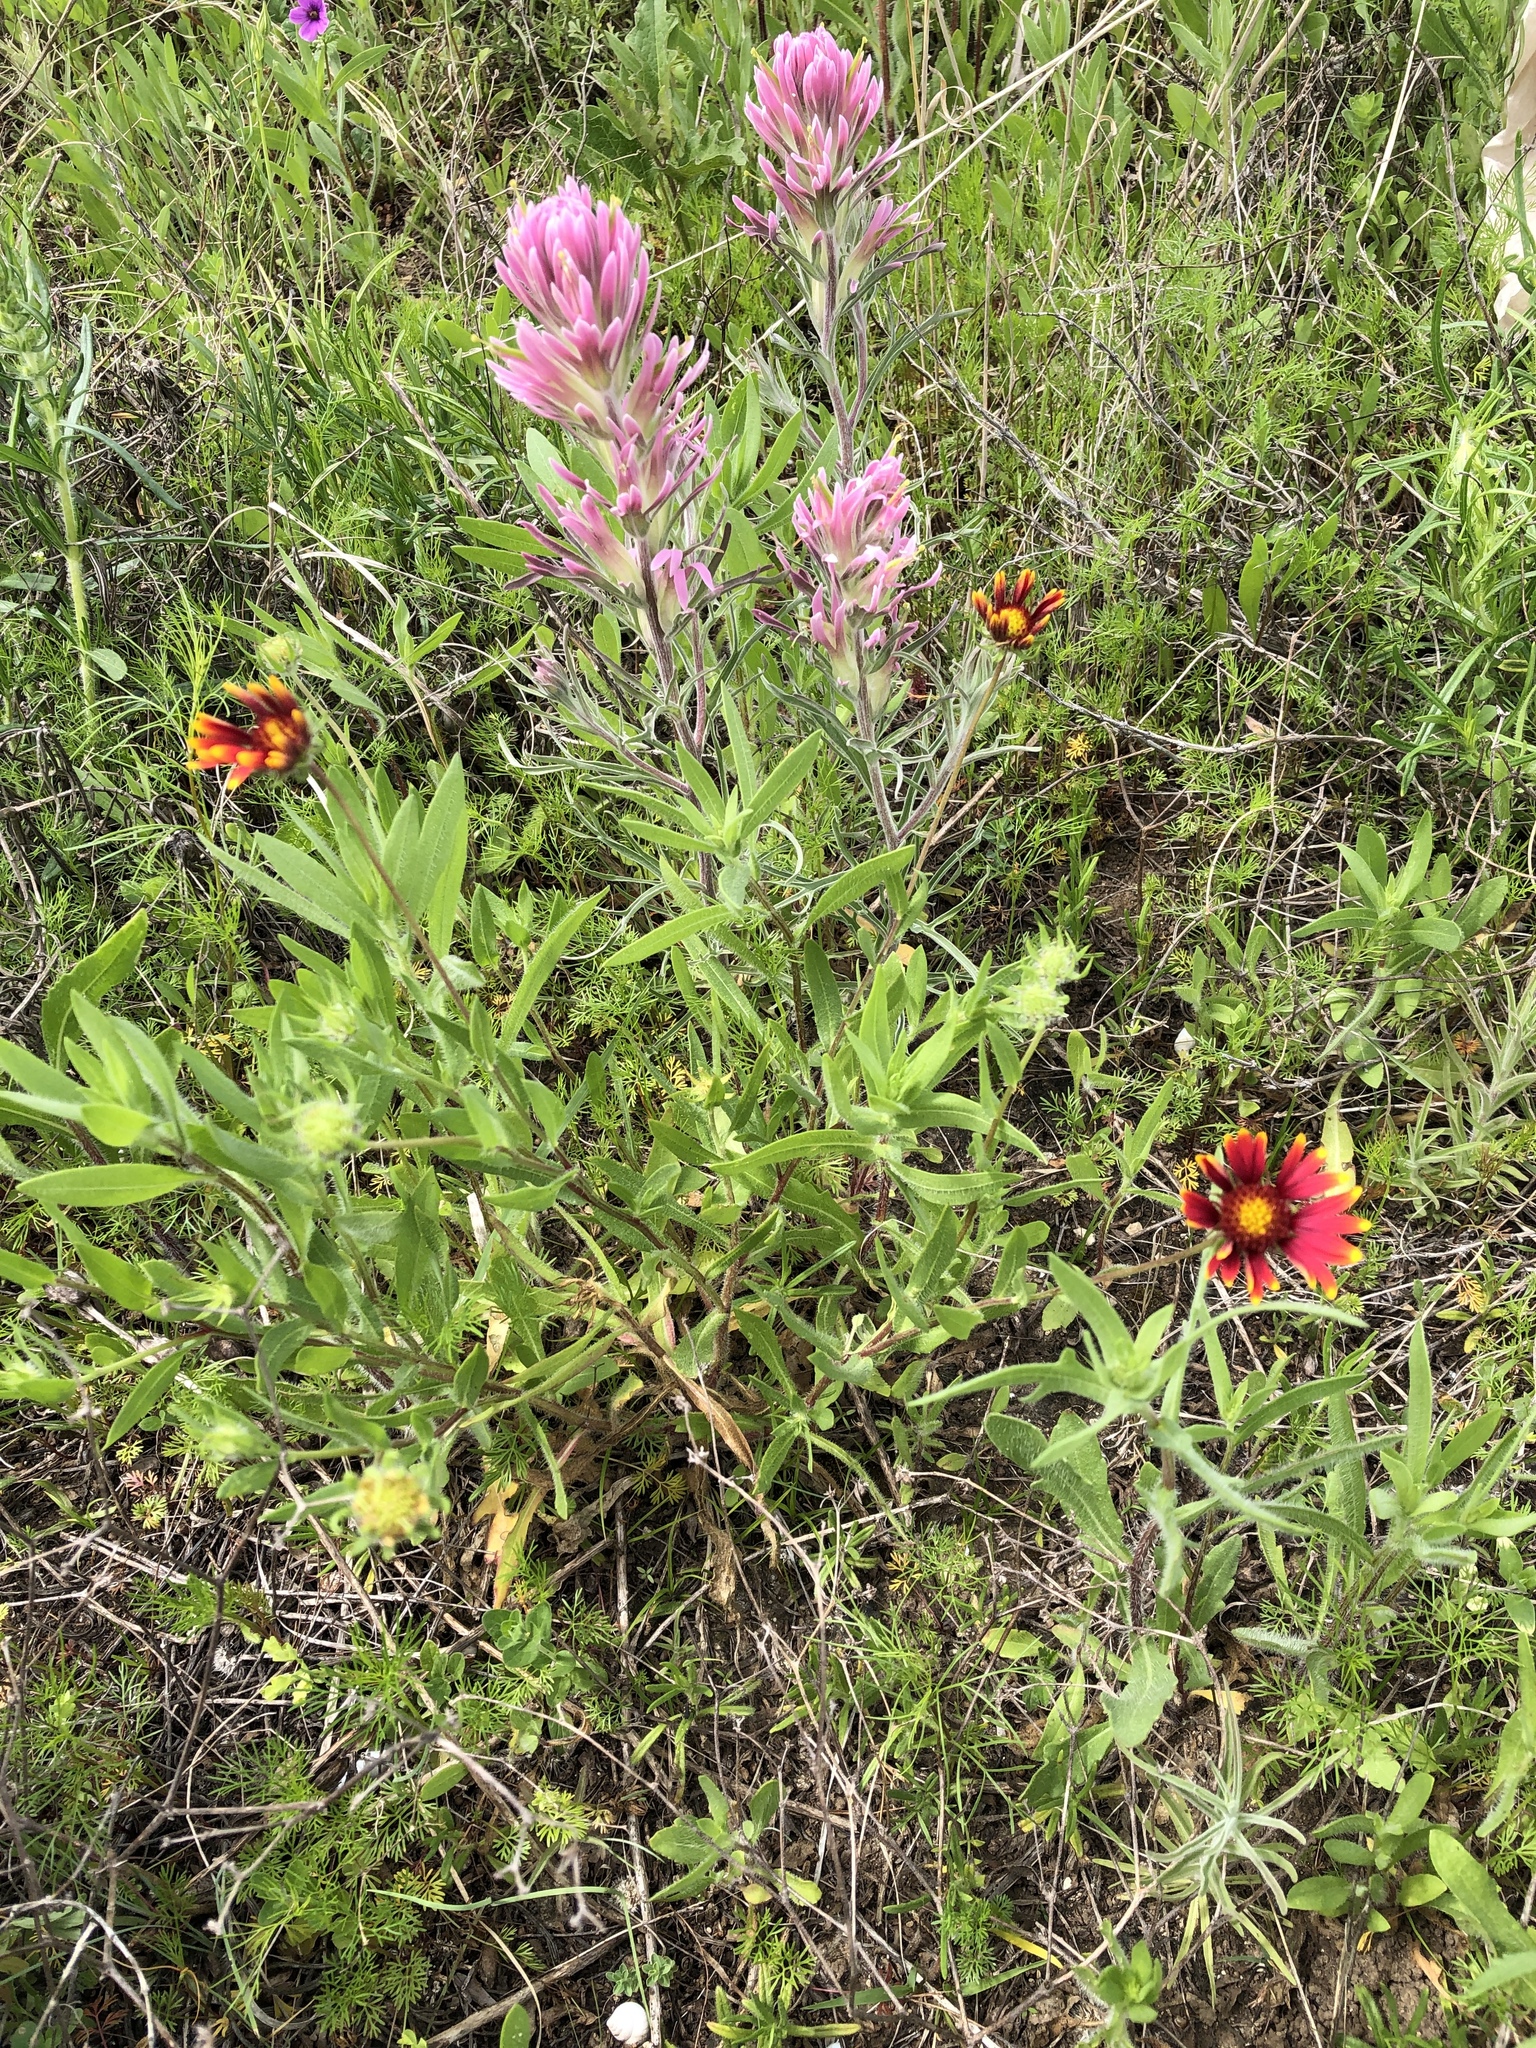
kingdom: Plantae
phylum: Tracheophyta
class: Magnoliopsida
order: Asterales
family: Asteraceae
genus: Gaillardia
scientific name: Gaillardia pulchella
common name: Firewheel
